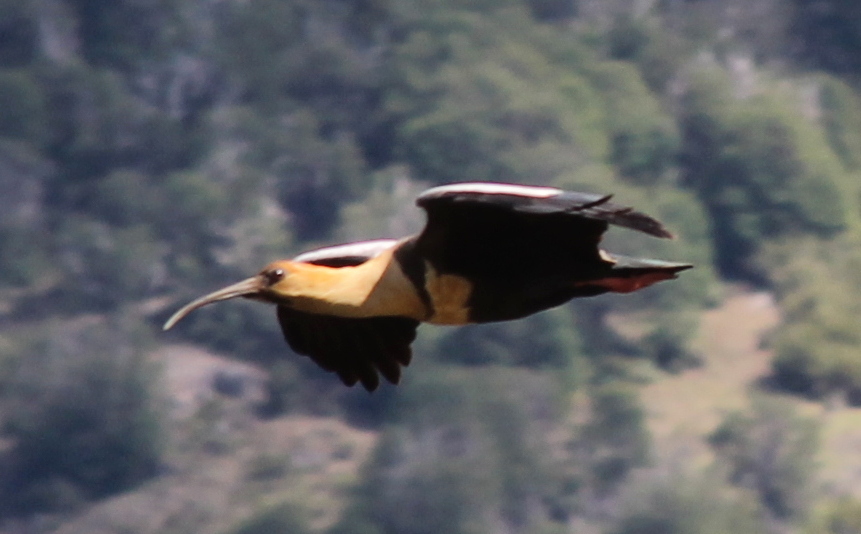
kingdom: Animalia
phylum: Chordata
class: Aves
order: Pelecaniformes
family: Threskiornithidae
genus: Theristicus
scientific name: Theristicus melanopis
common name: Black-faced ibis
